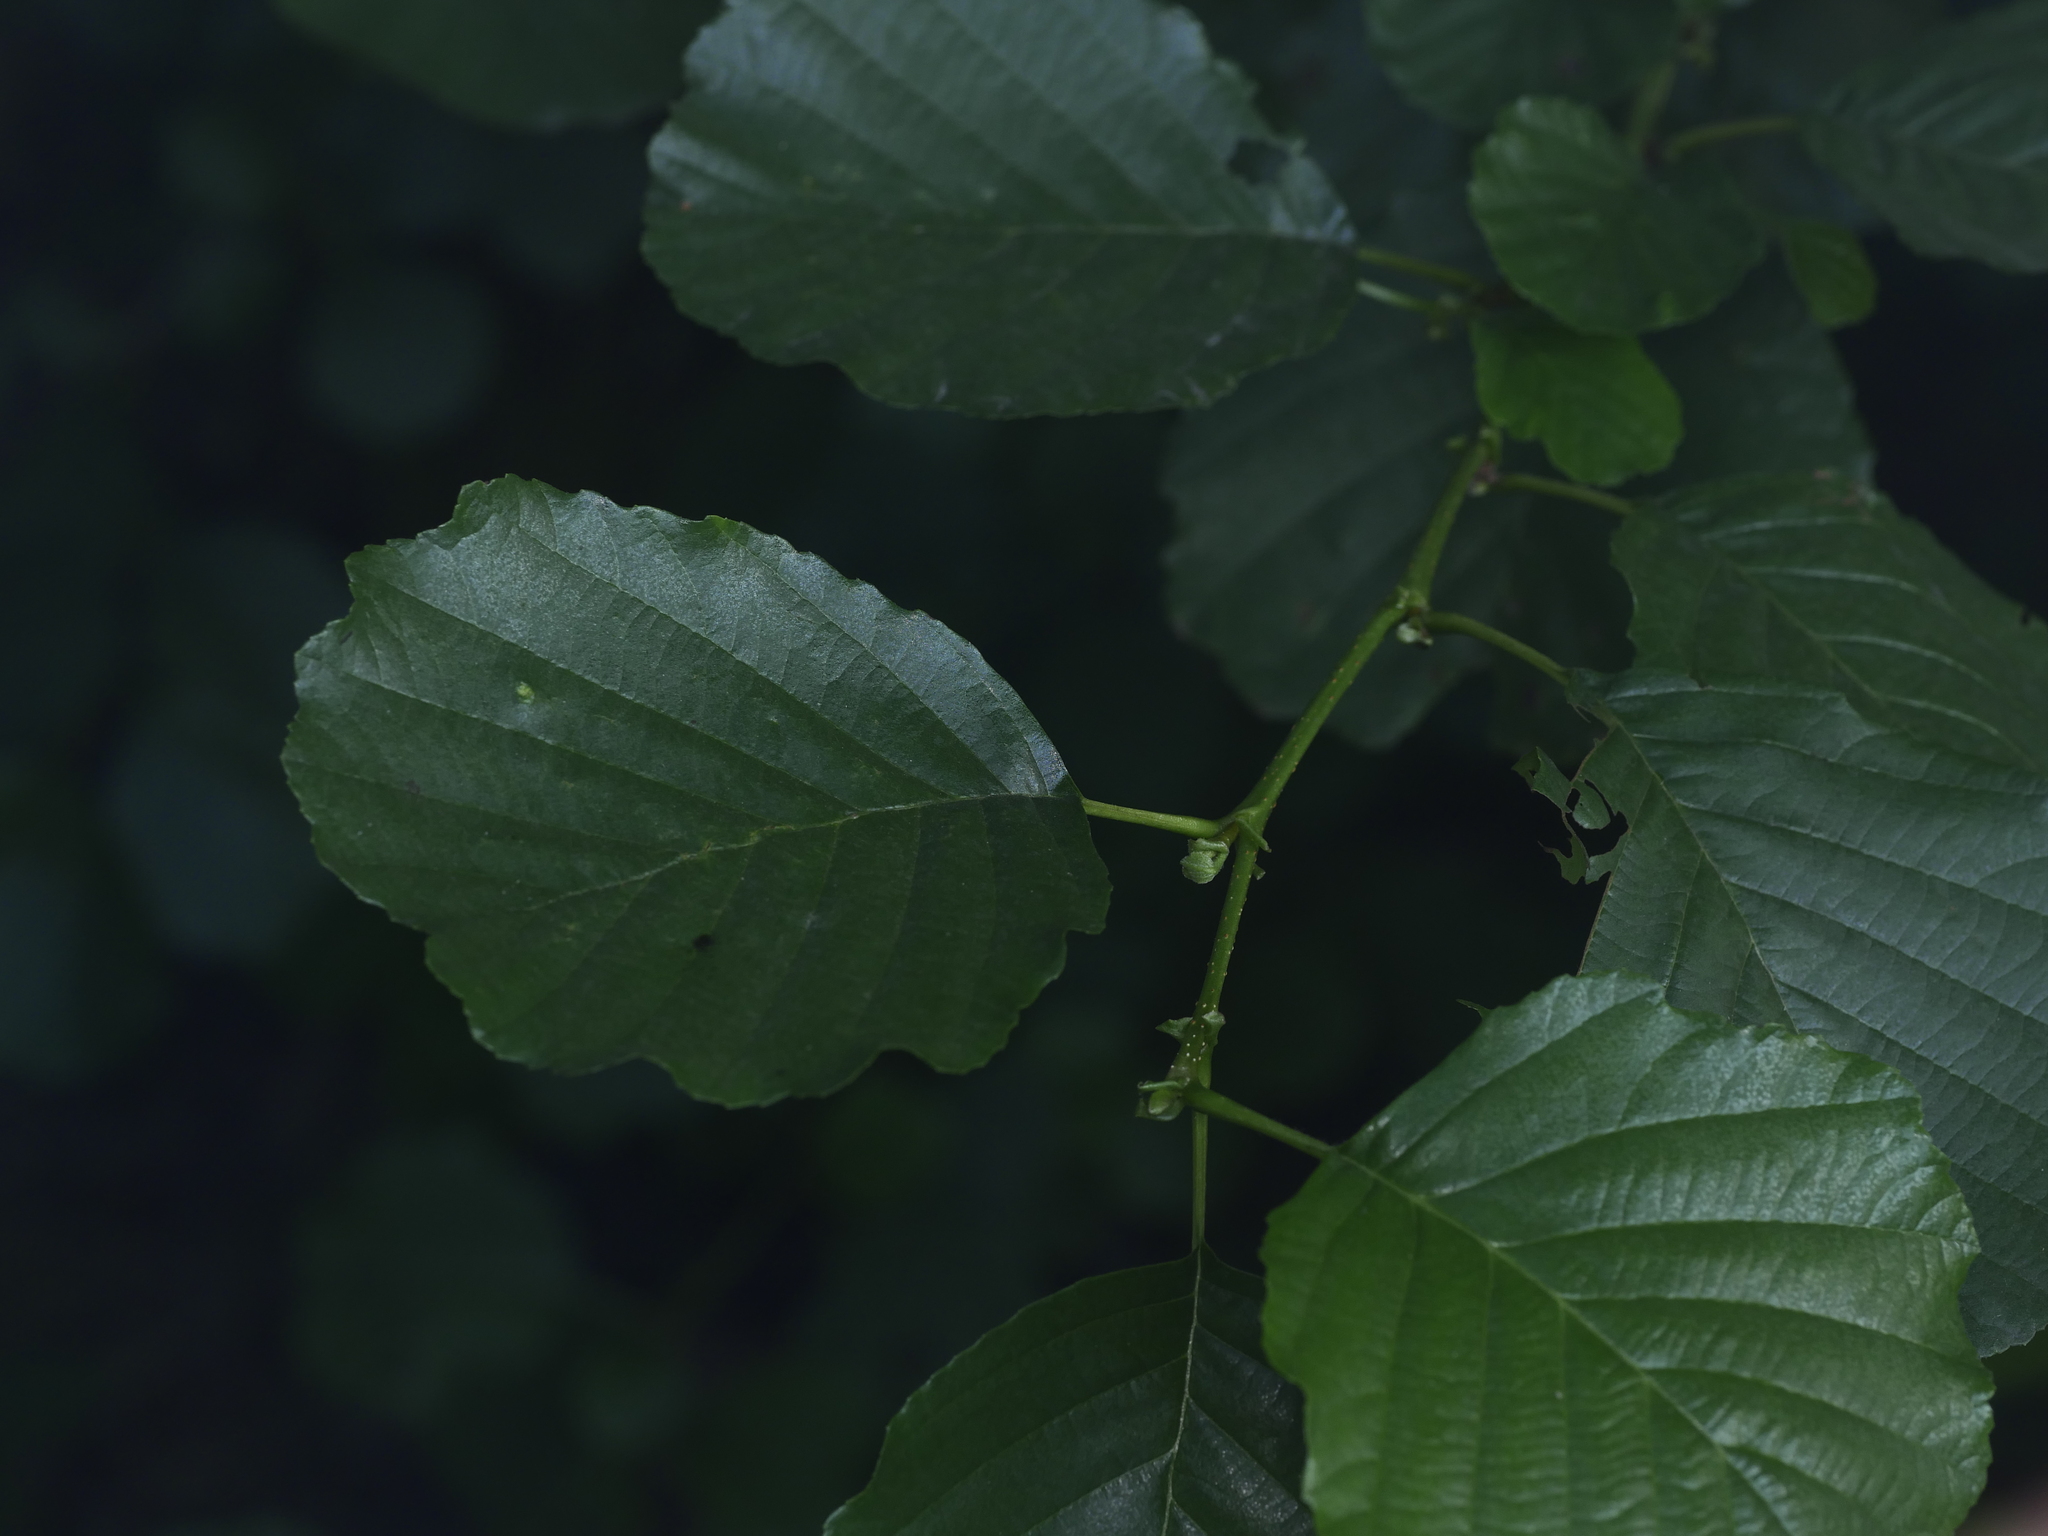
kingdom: Plantae
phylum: Tracheophyta
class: Magnoliopsida
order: Fagales
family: Betulaceae
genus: Alnus
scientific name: Alnus glutinosa
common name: Black alder
